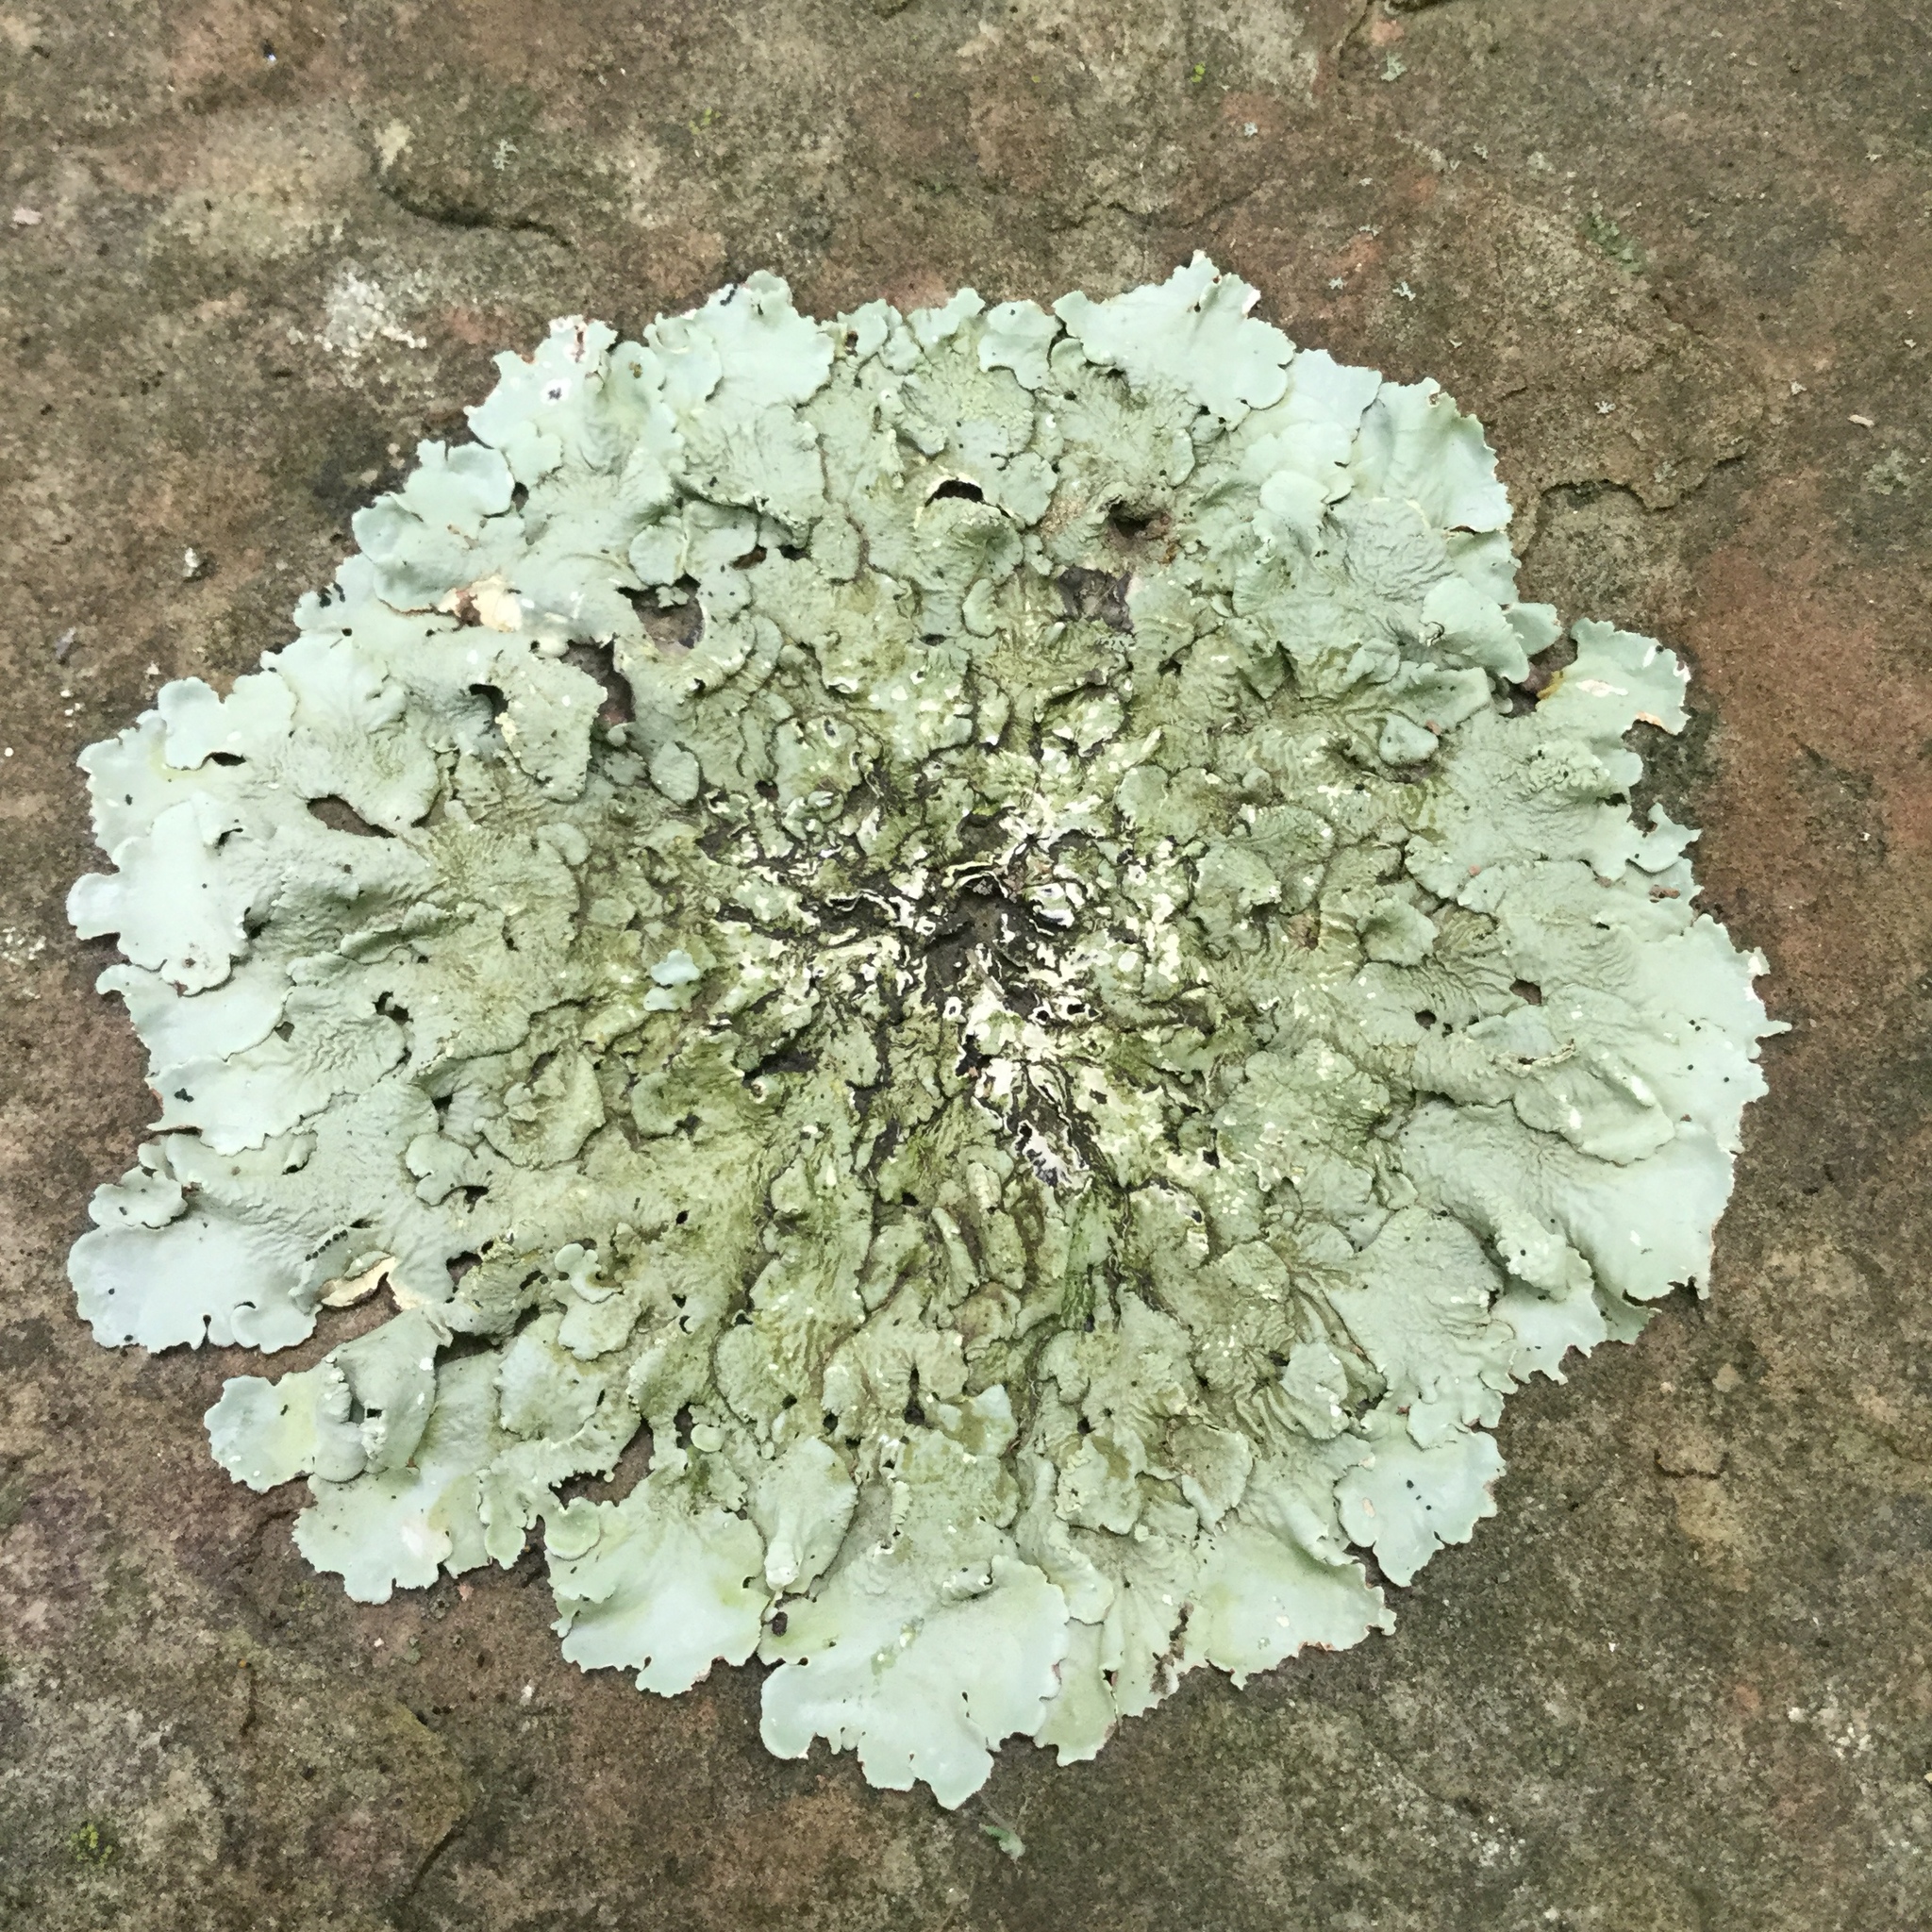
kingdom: Fungi
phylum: Ascomycota
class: Lecanoromycetes
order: Lecanorales
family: Parmeliaceae
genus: Flavoparmelia
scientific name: Flavoparmelia caperata
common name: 40-mile per hour lichen
